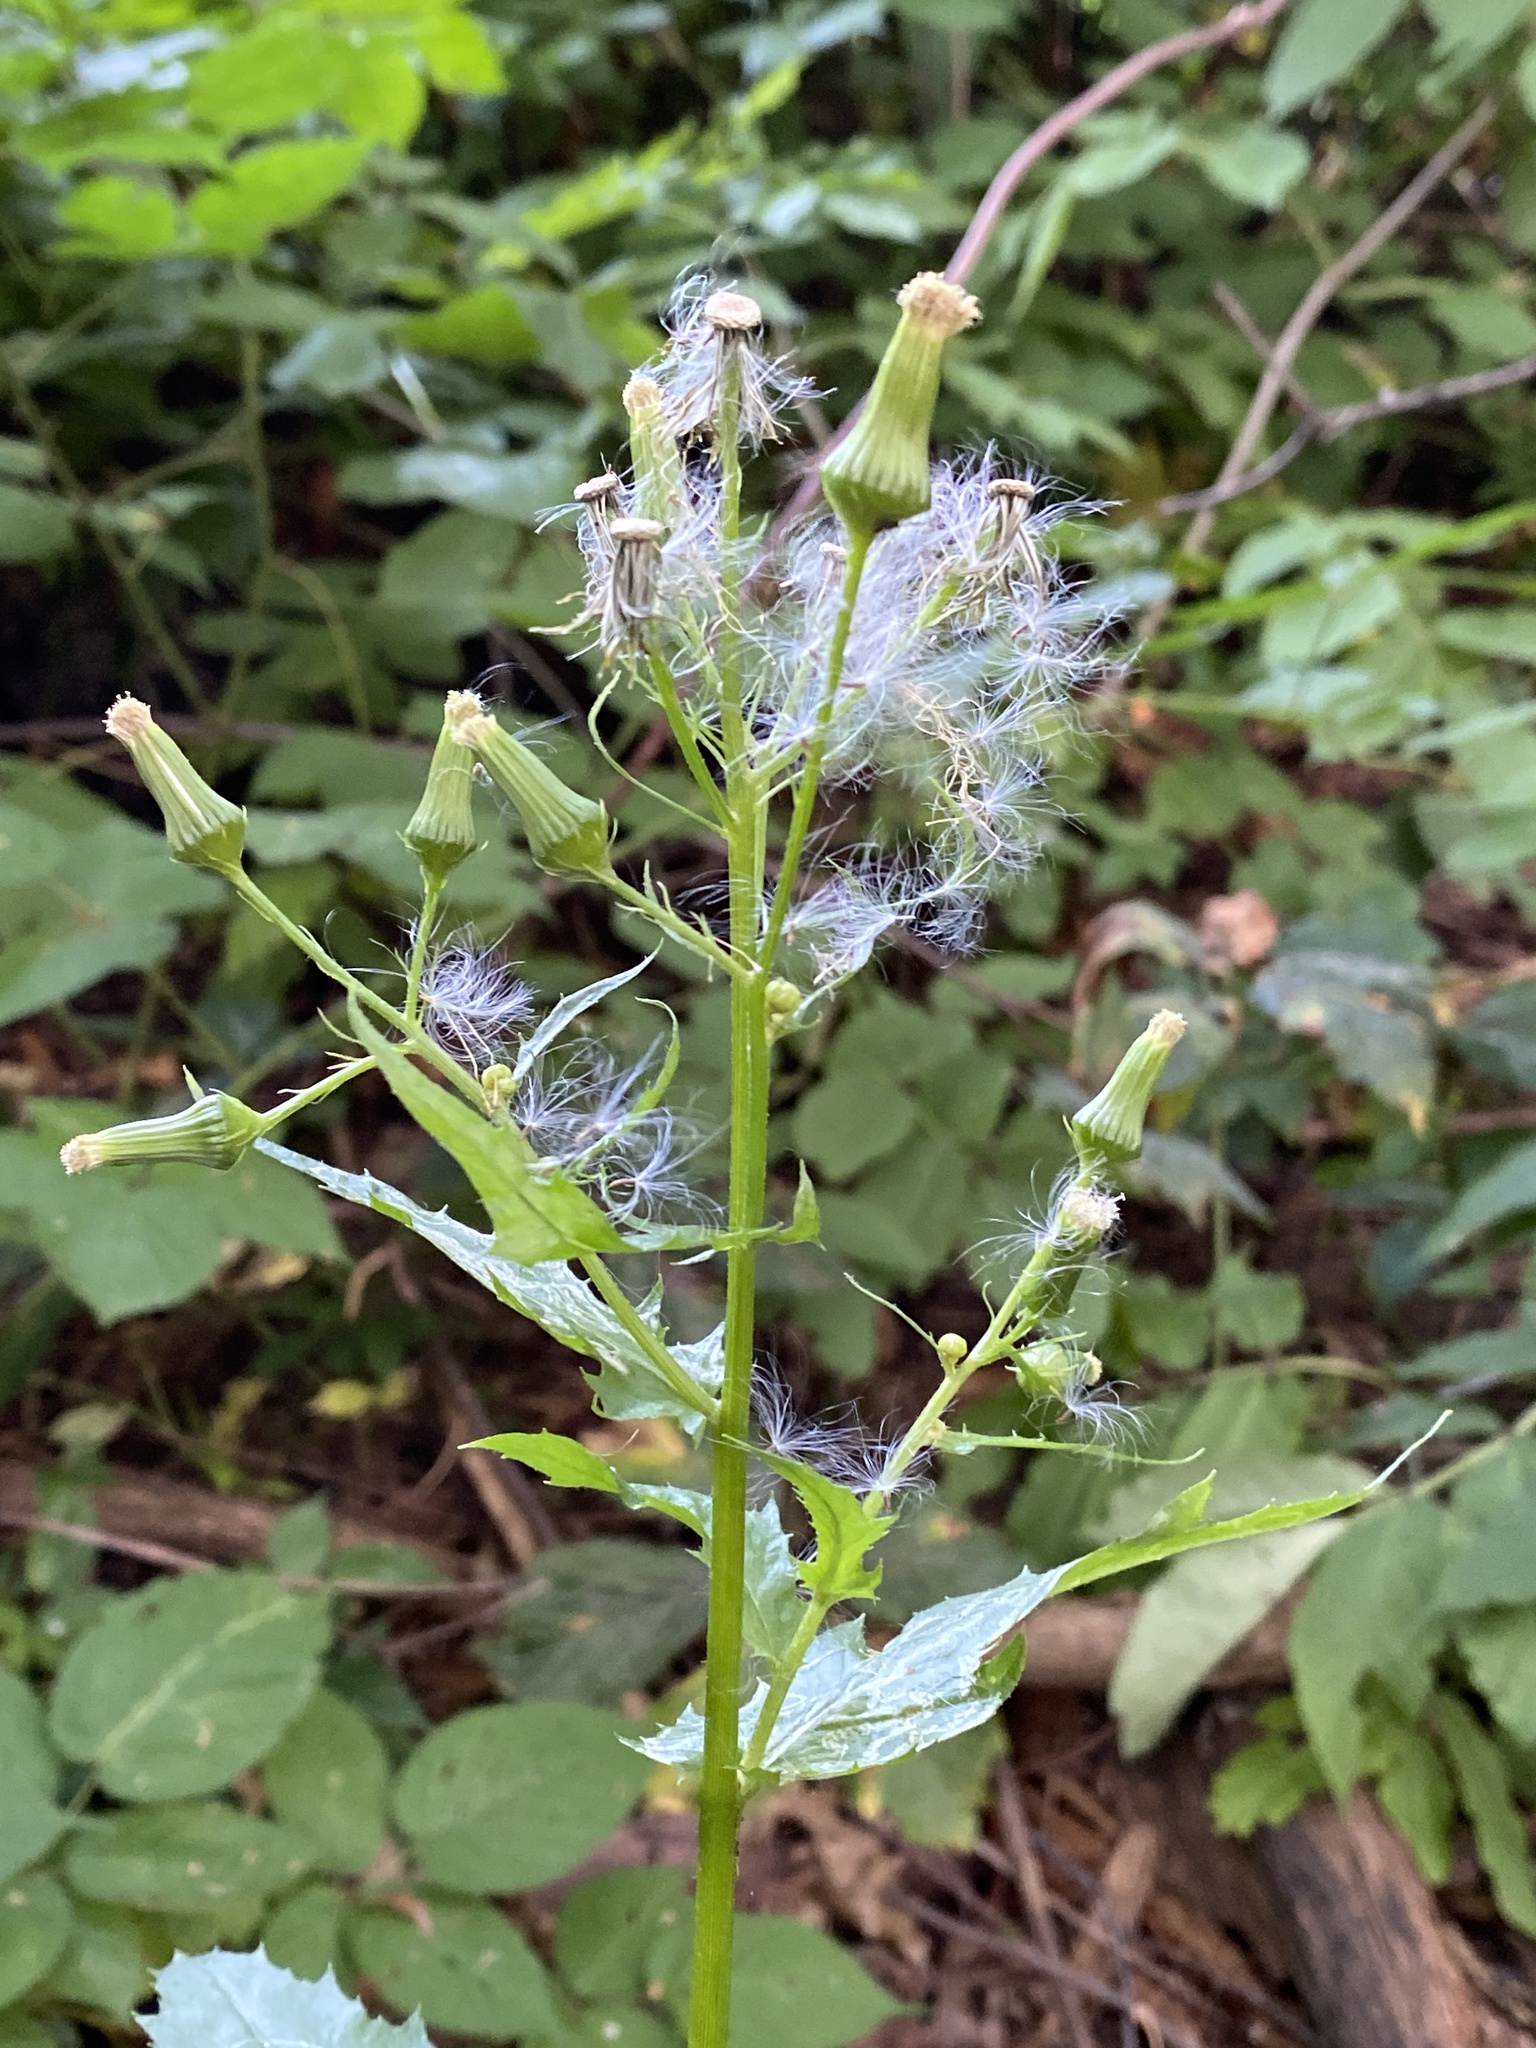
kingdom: Plantae
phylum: Tracheophyta
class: Magnoliopsida
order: Asterales
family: Asteraceae
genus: Erechtites
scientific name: Erechtites hieraciifolius
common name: American burnweed
